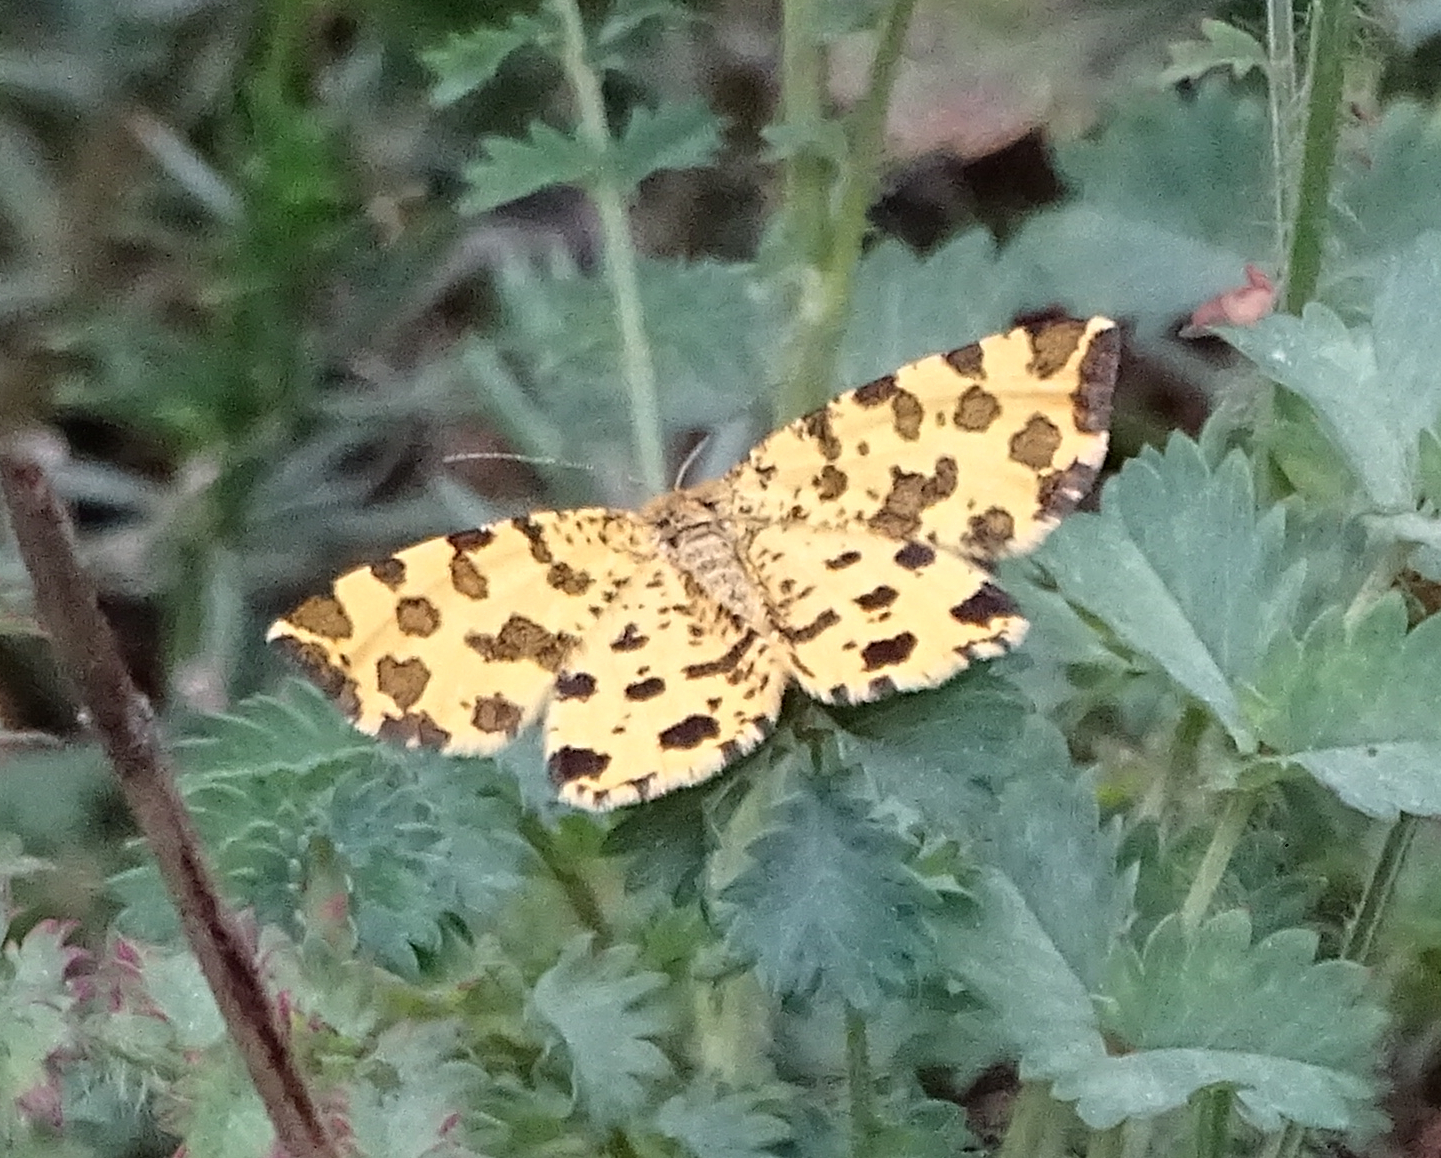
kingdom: Animalia
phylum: Arthropoda
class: Insecta
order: Lepidoptera
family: Geometridae
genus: Pseudopanthera
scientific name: Pseudopanthera macularia
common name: Speckled yellow
